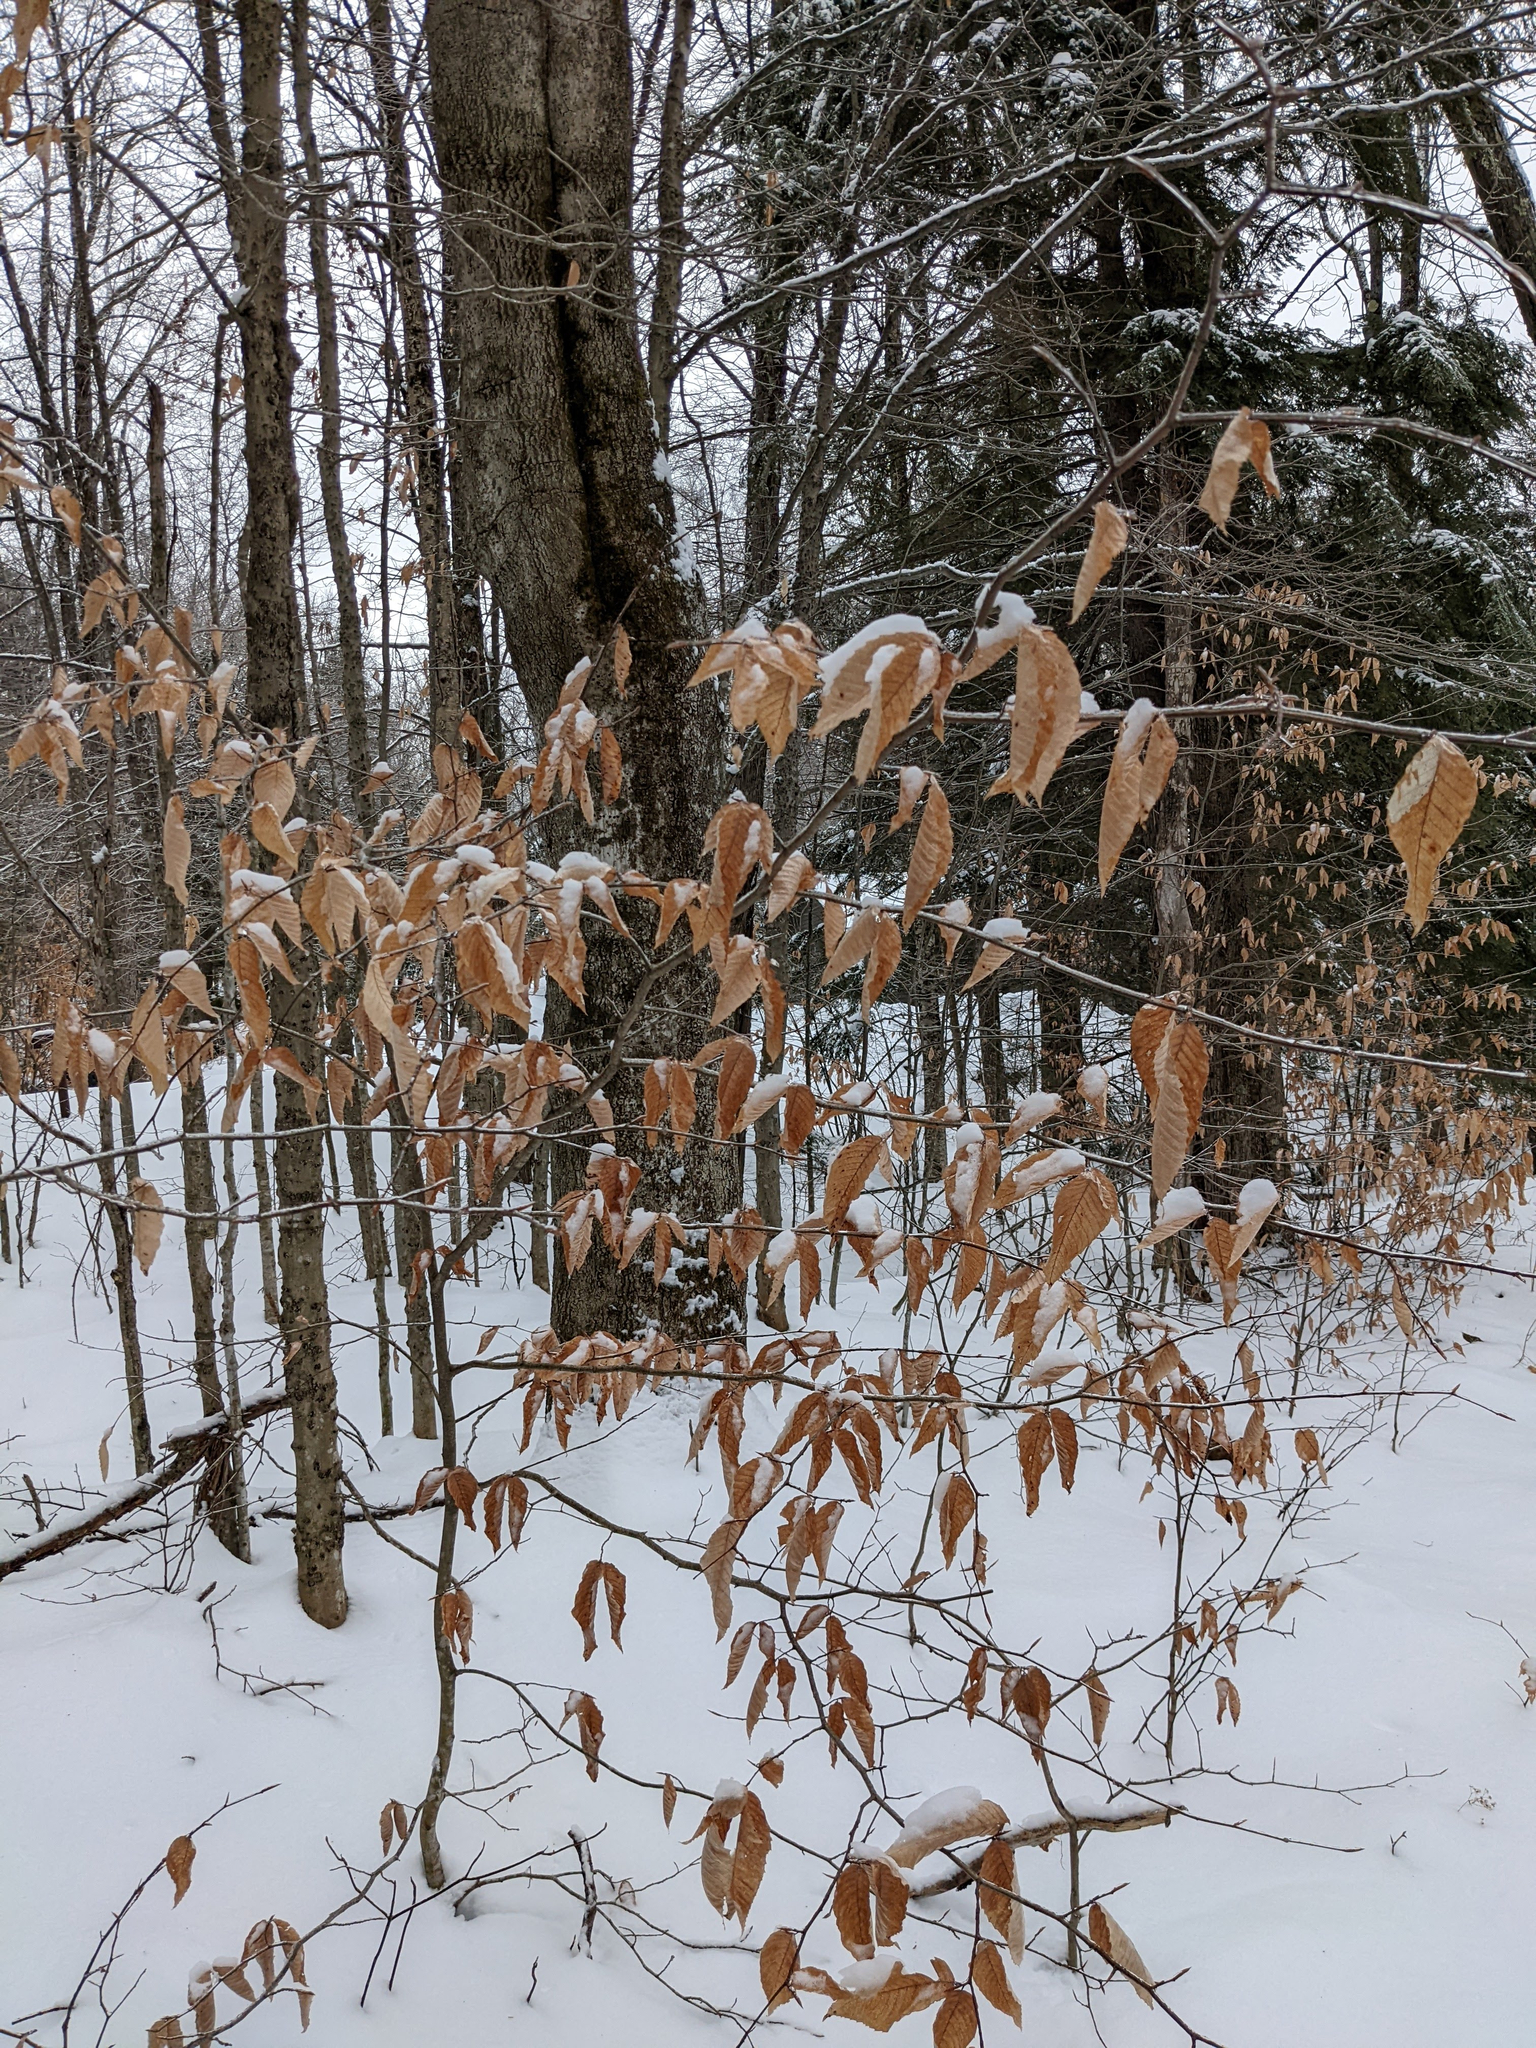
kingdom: Plantae
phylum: Tracheophyta
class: Magnoliopsida
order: Fagales
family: Fagaceae
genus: Fagus
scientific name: Fagus grandifolia
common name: American beech
